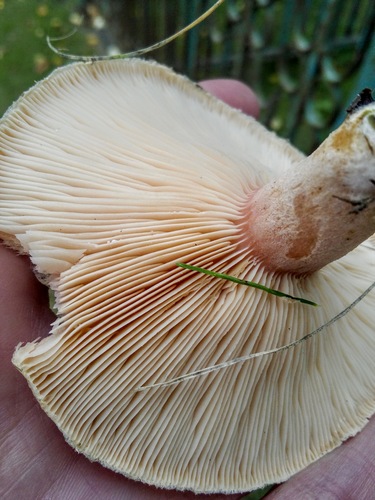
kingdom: Fungi
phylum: Basidiomycota
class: Agaricomycetes
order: Russulales
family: Russulaceae
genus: Lactarius
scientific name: Lactarius torminosus
